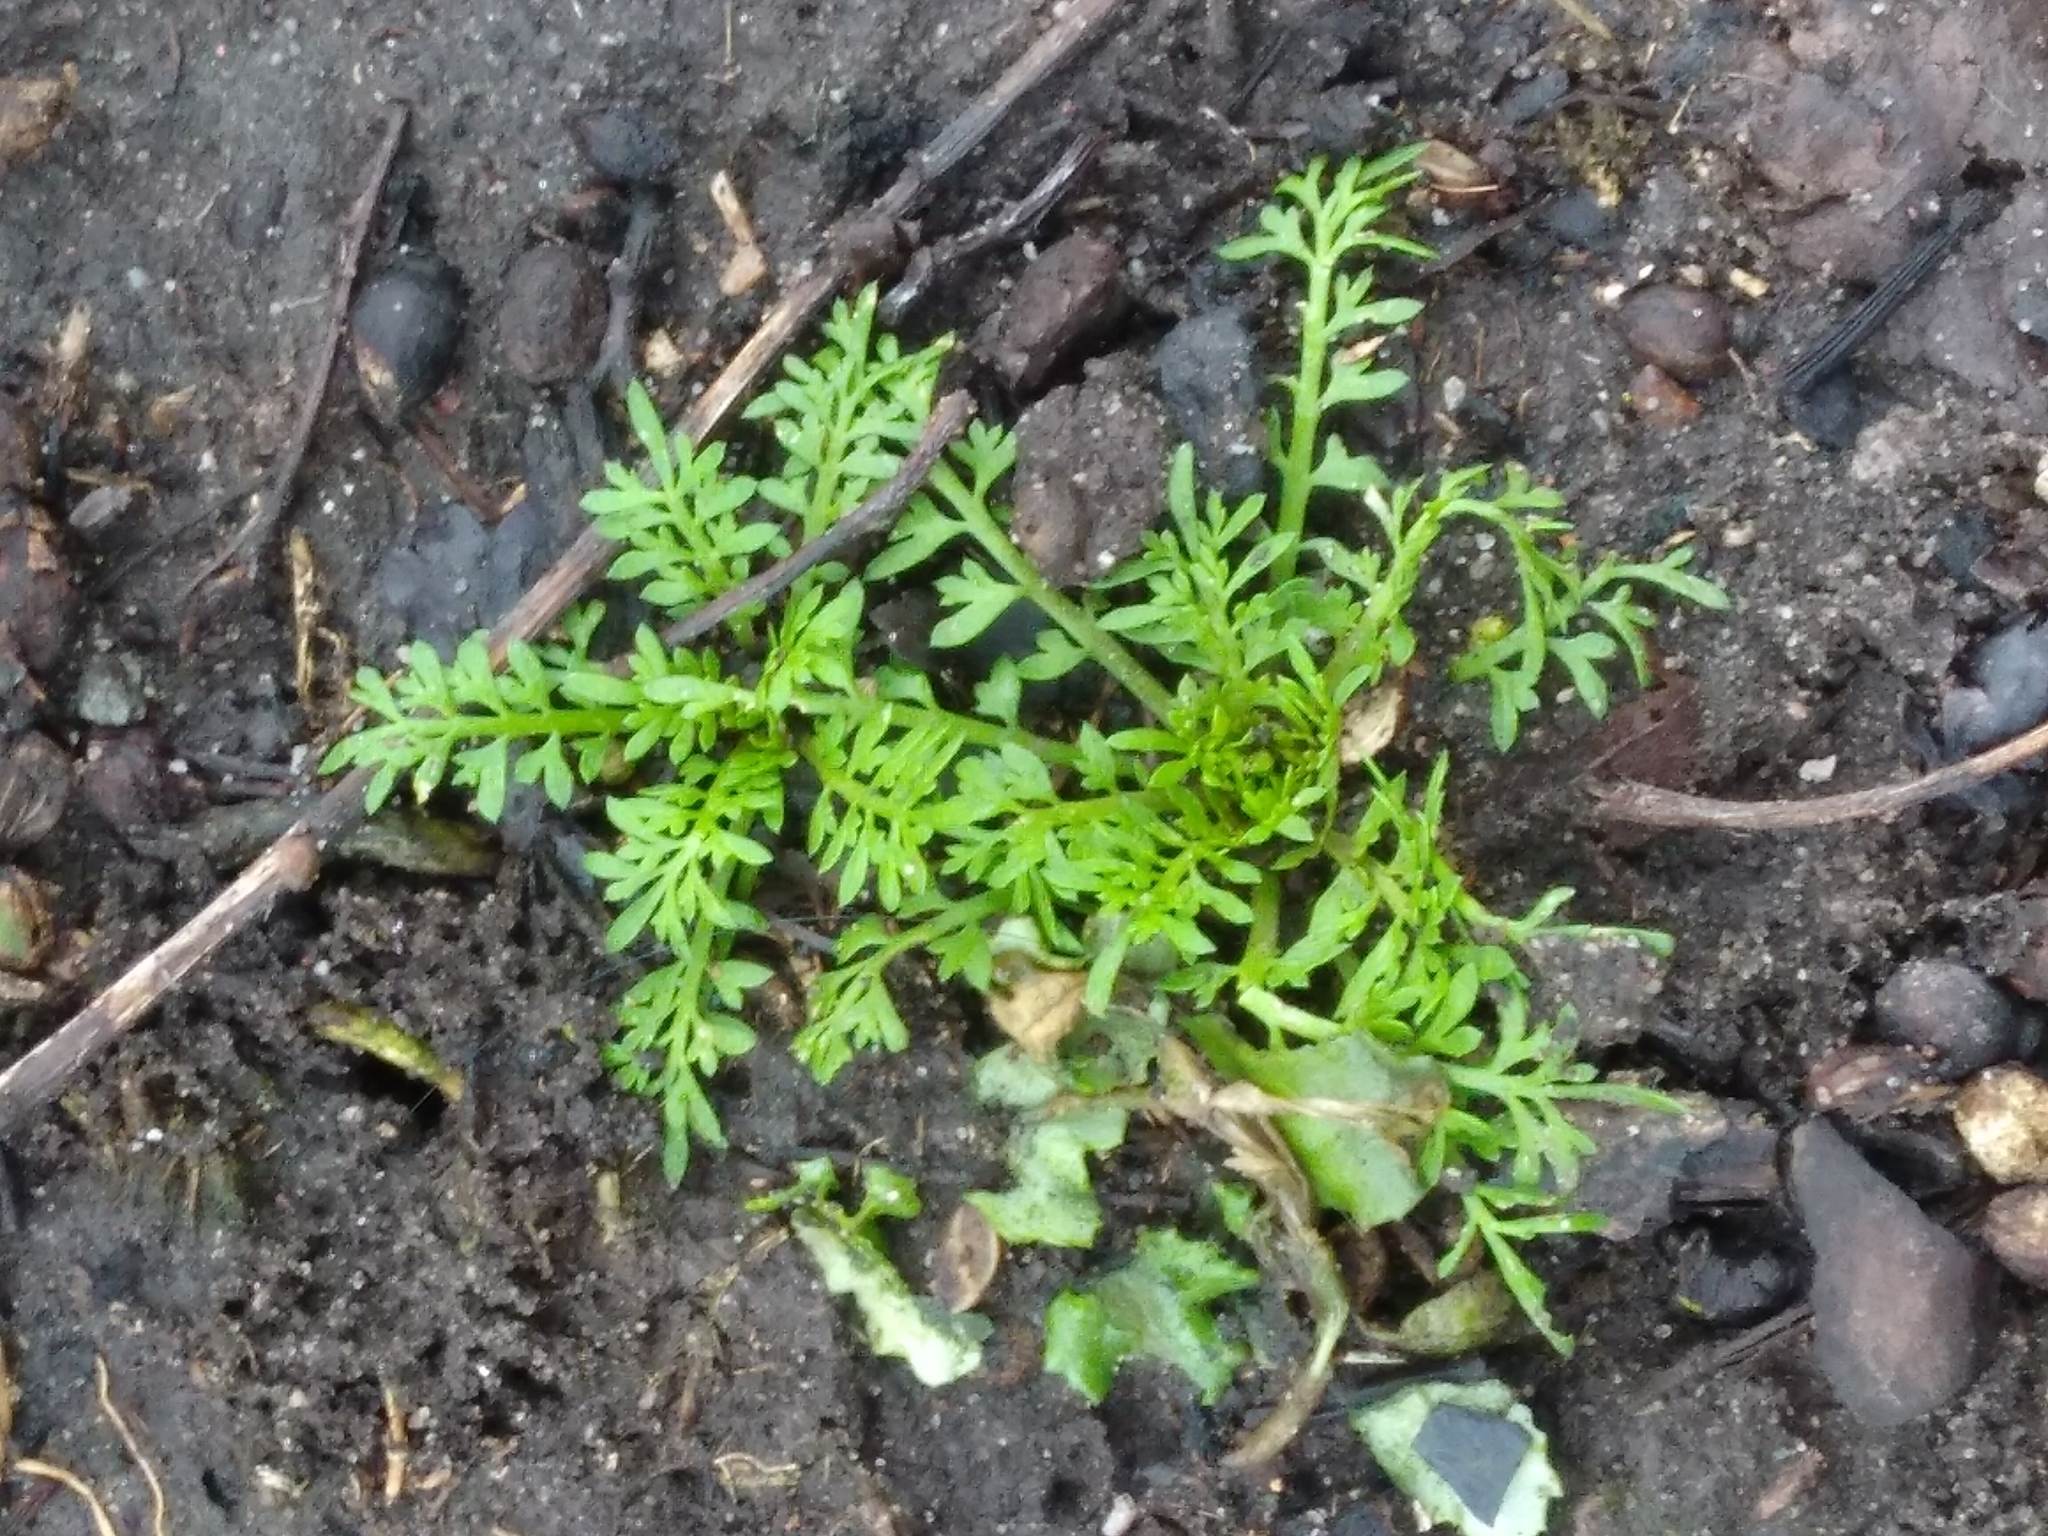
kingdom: Plantae
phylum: Tracheophyta
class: Magnoliopsida
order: Brassicales
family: Brassicaceae
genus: Lepidium
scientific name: Lepidium didymum
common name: Lesser swinecress
